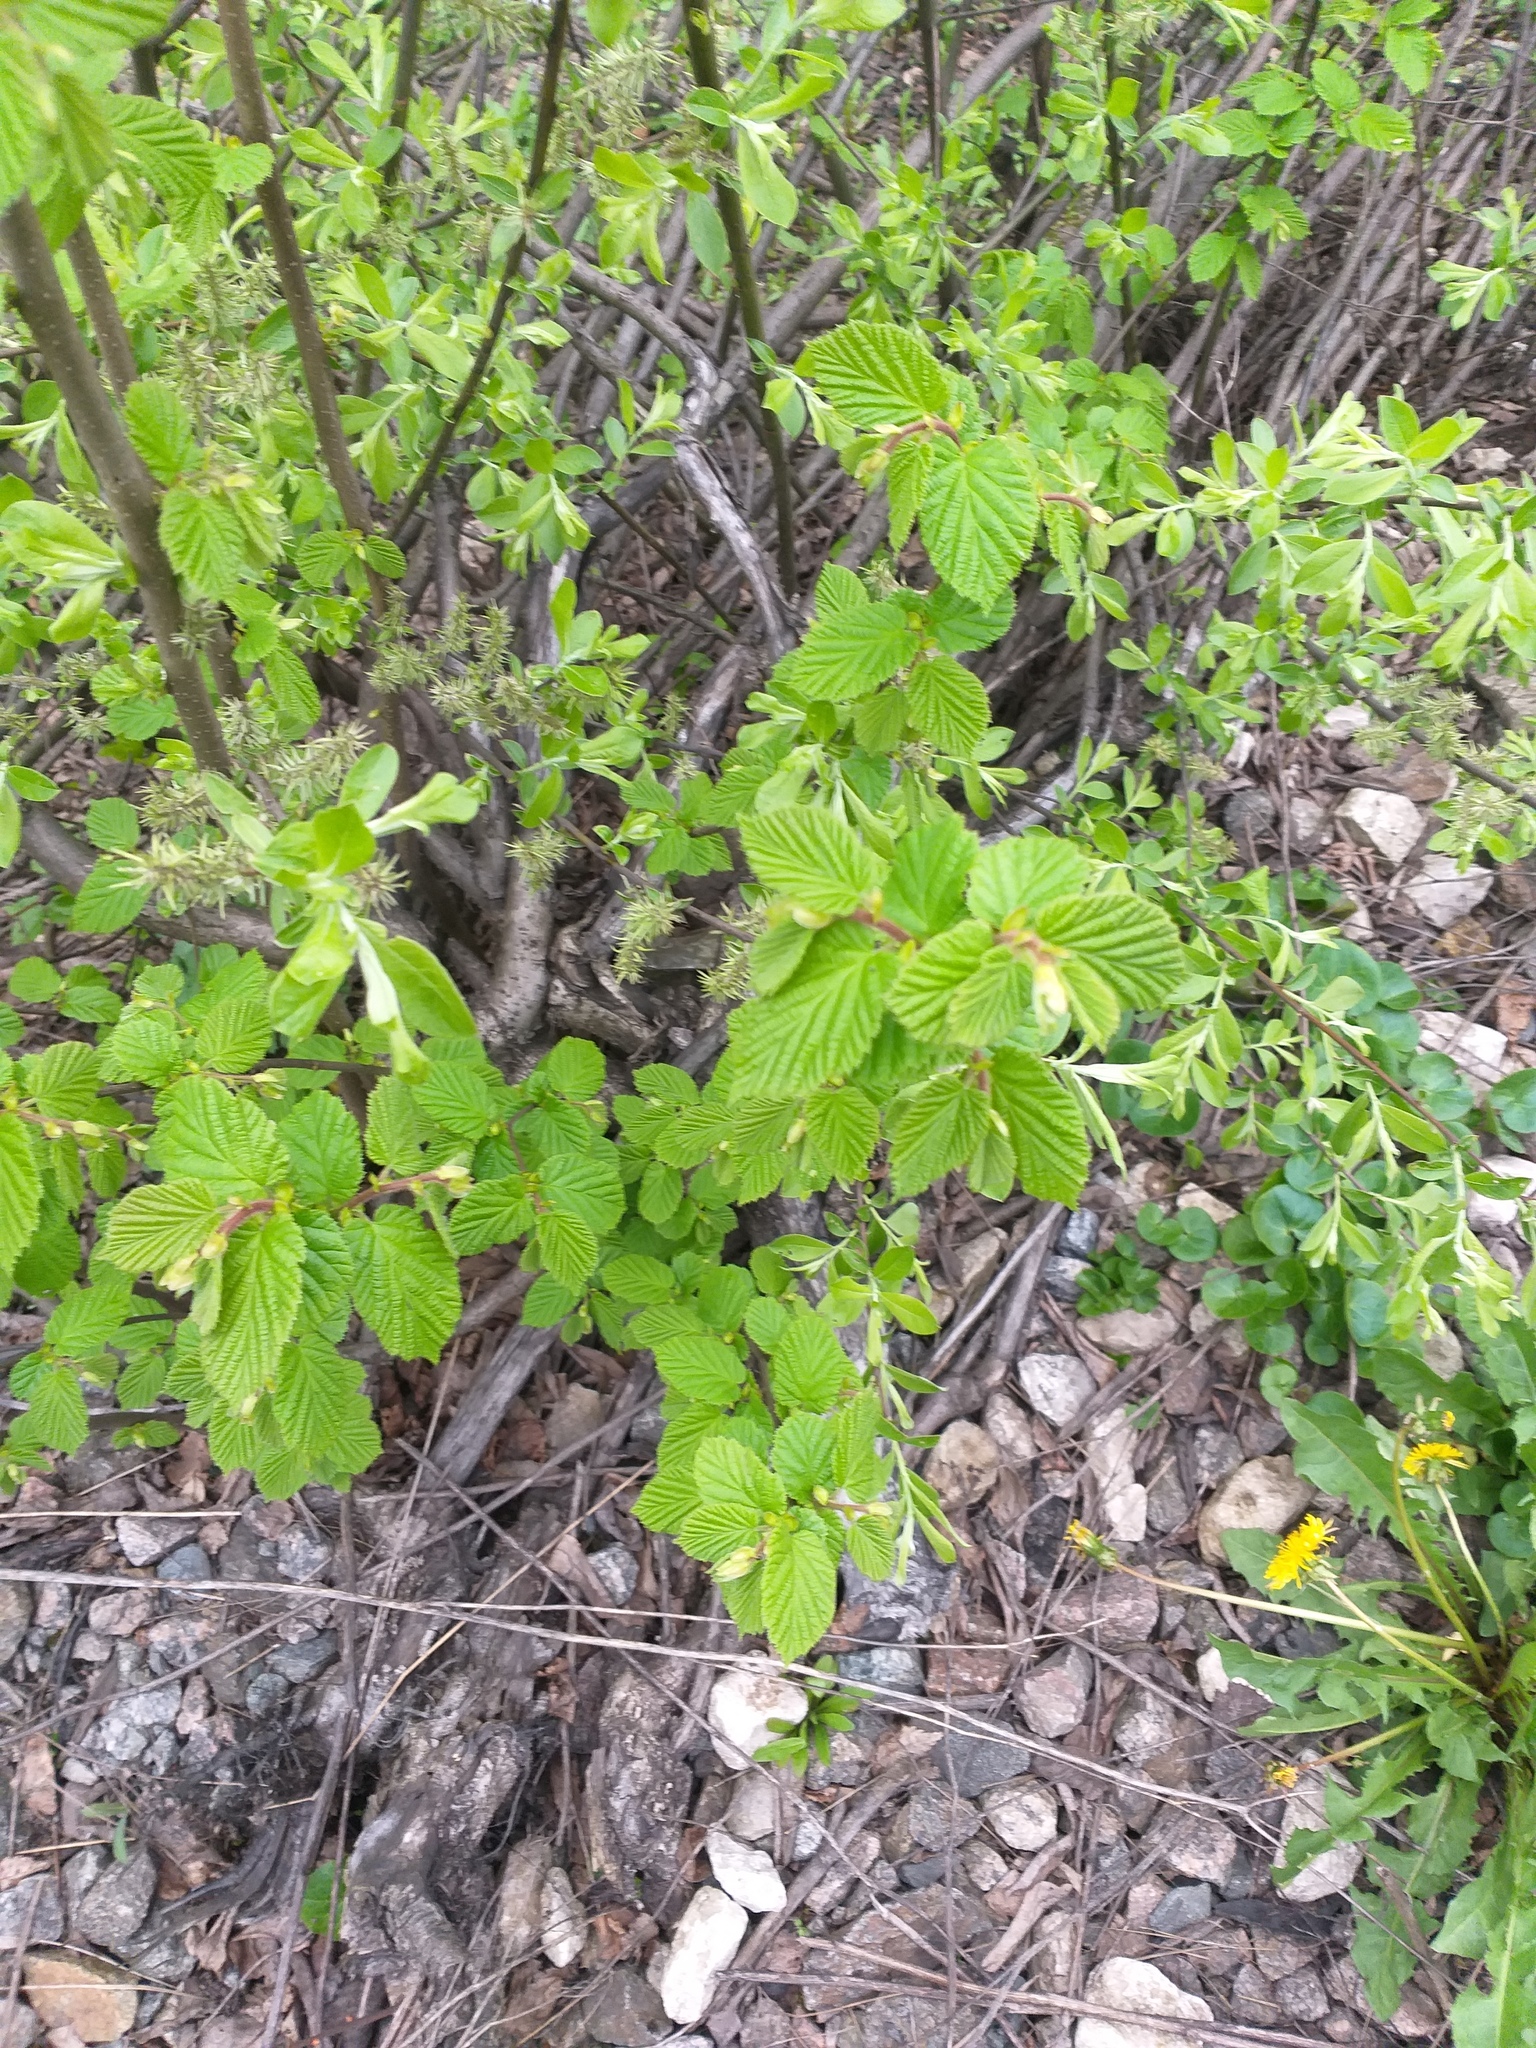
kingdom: Plantae
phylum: Tracheophyta
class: Magnoliopsida
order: Fagales
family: Betulaceae
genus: Corylus
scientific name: Corylus avellana
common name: European hazel
